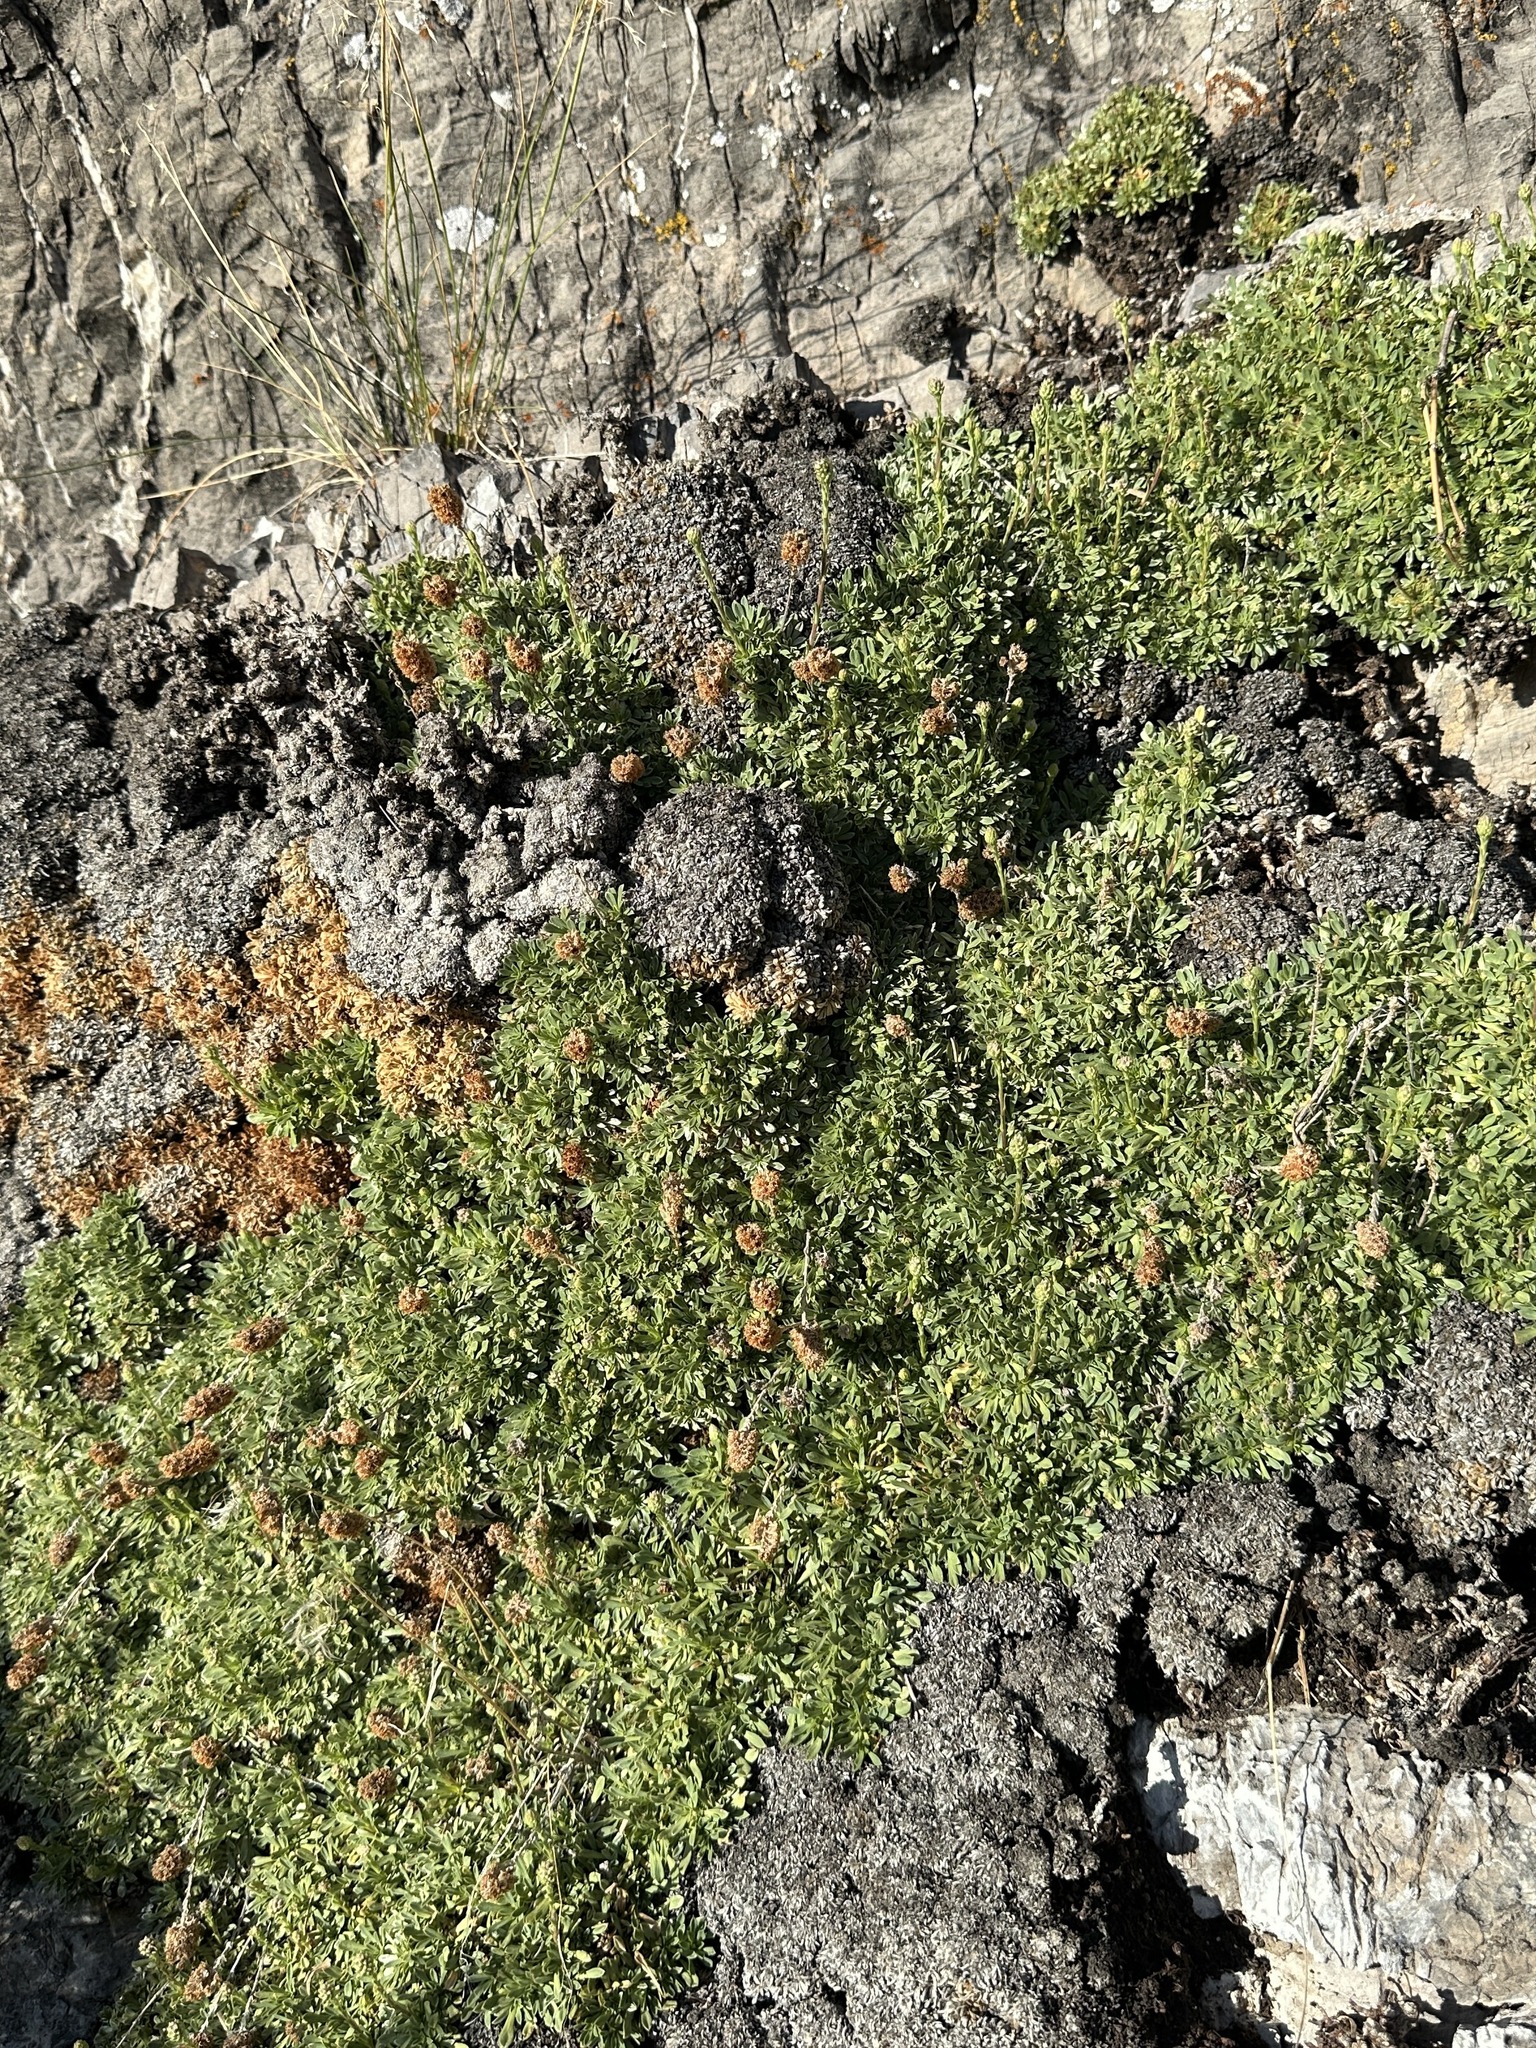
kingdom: Plantae
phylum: Tracheophyta
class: Magnoliopsida
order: Rosales
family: Rosaceae
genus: Petrophytum
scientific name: Petrophytum caespitosum
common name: Mat rockspirea
